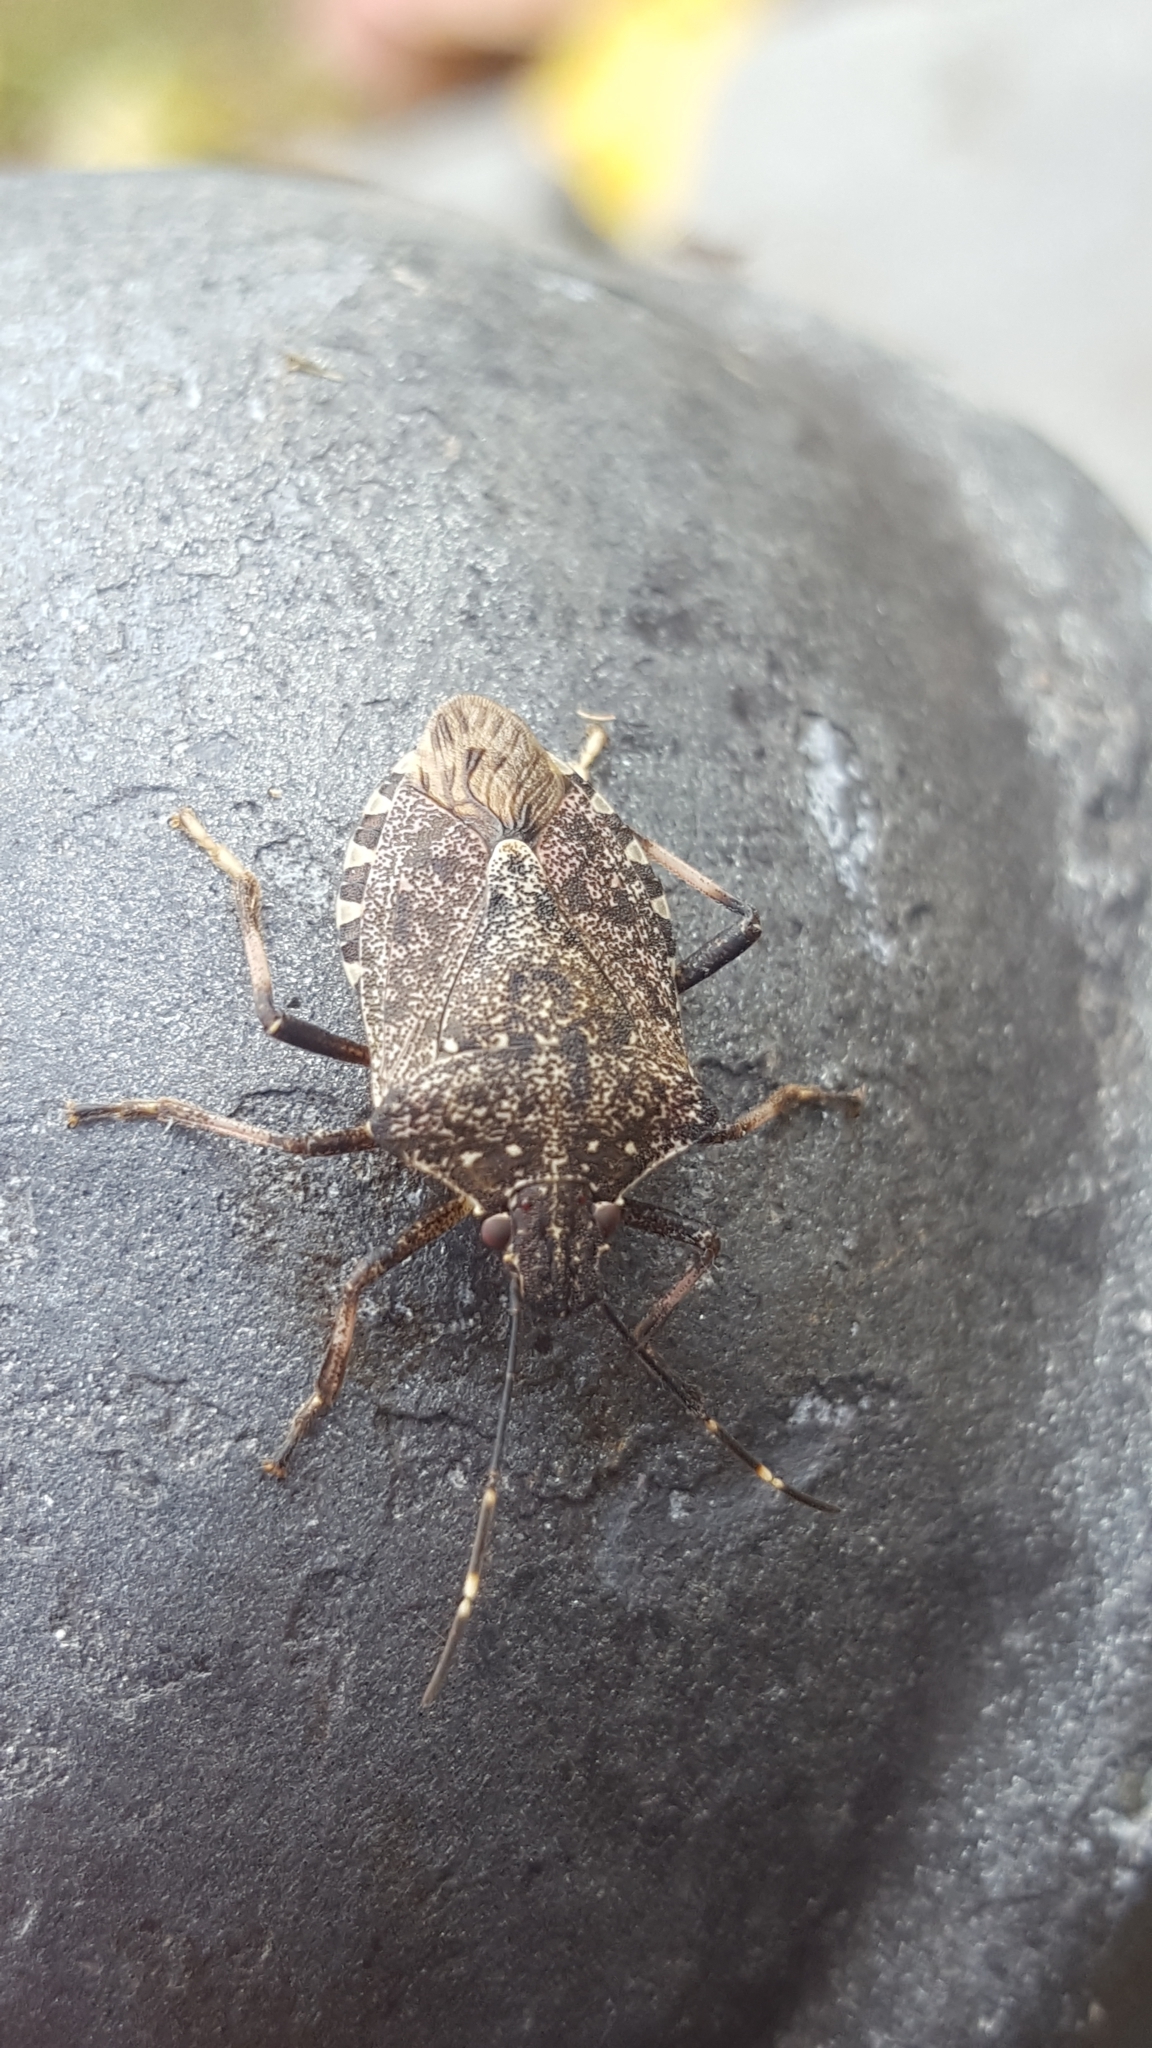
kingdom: Animalia
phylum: Arthropoda
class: Insecta
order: Hemiptera
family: Pentatomidae
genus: Halyomorpha
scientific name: Halyomorpha halys
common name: Brown marmorated stink bug
